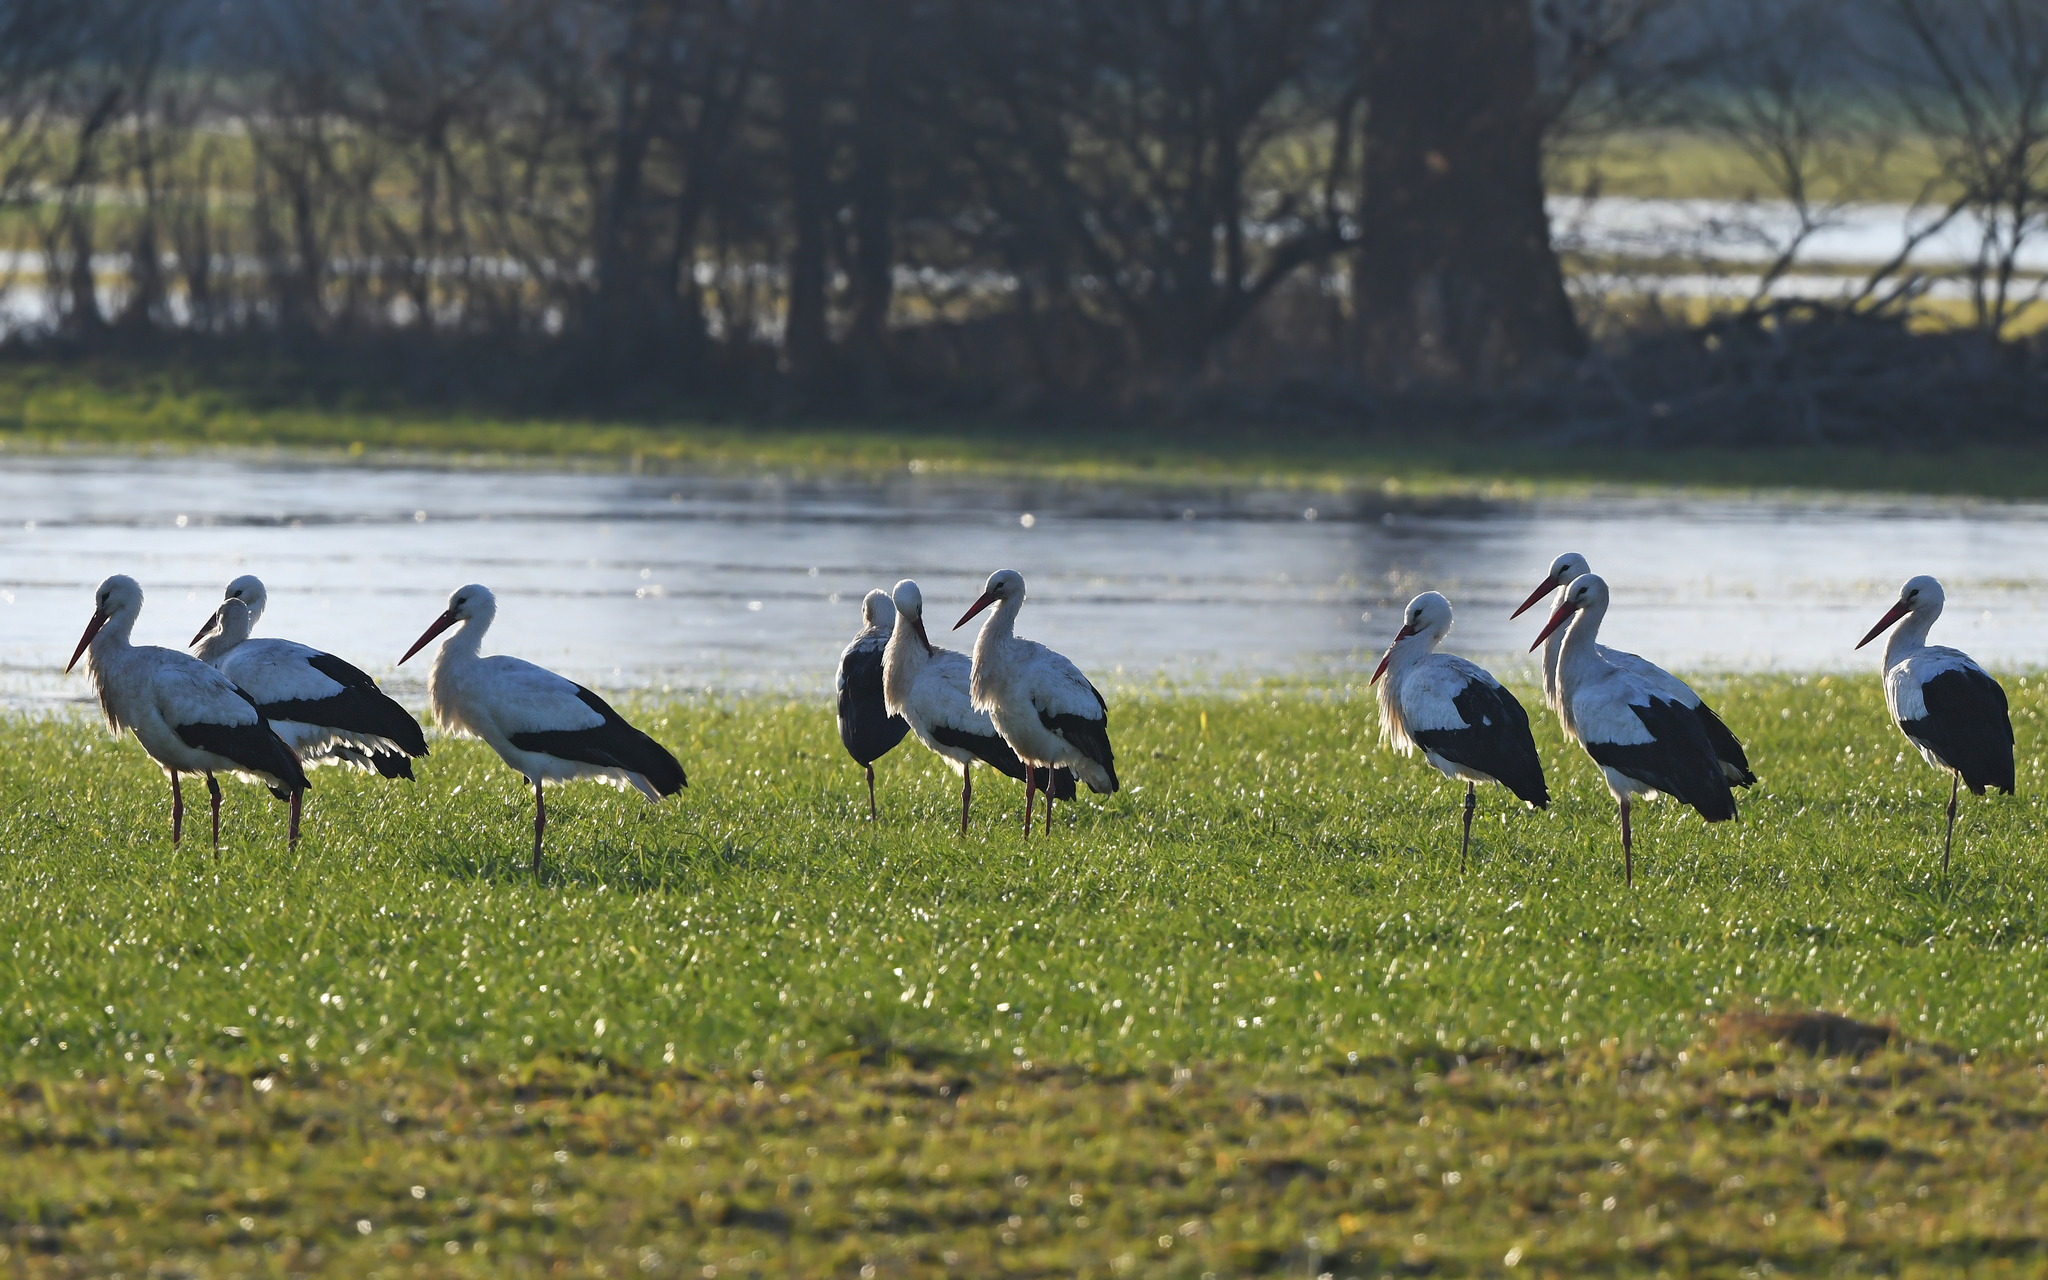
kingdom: Animalia
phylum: Chordata
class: Aves
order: Ciconiiformes
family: Ciconiidae
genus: Ciconia
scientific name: Ciconia ciconia
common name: White stork
